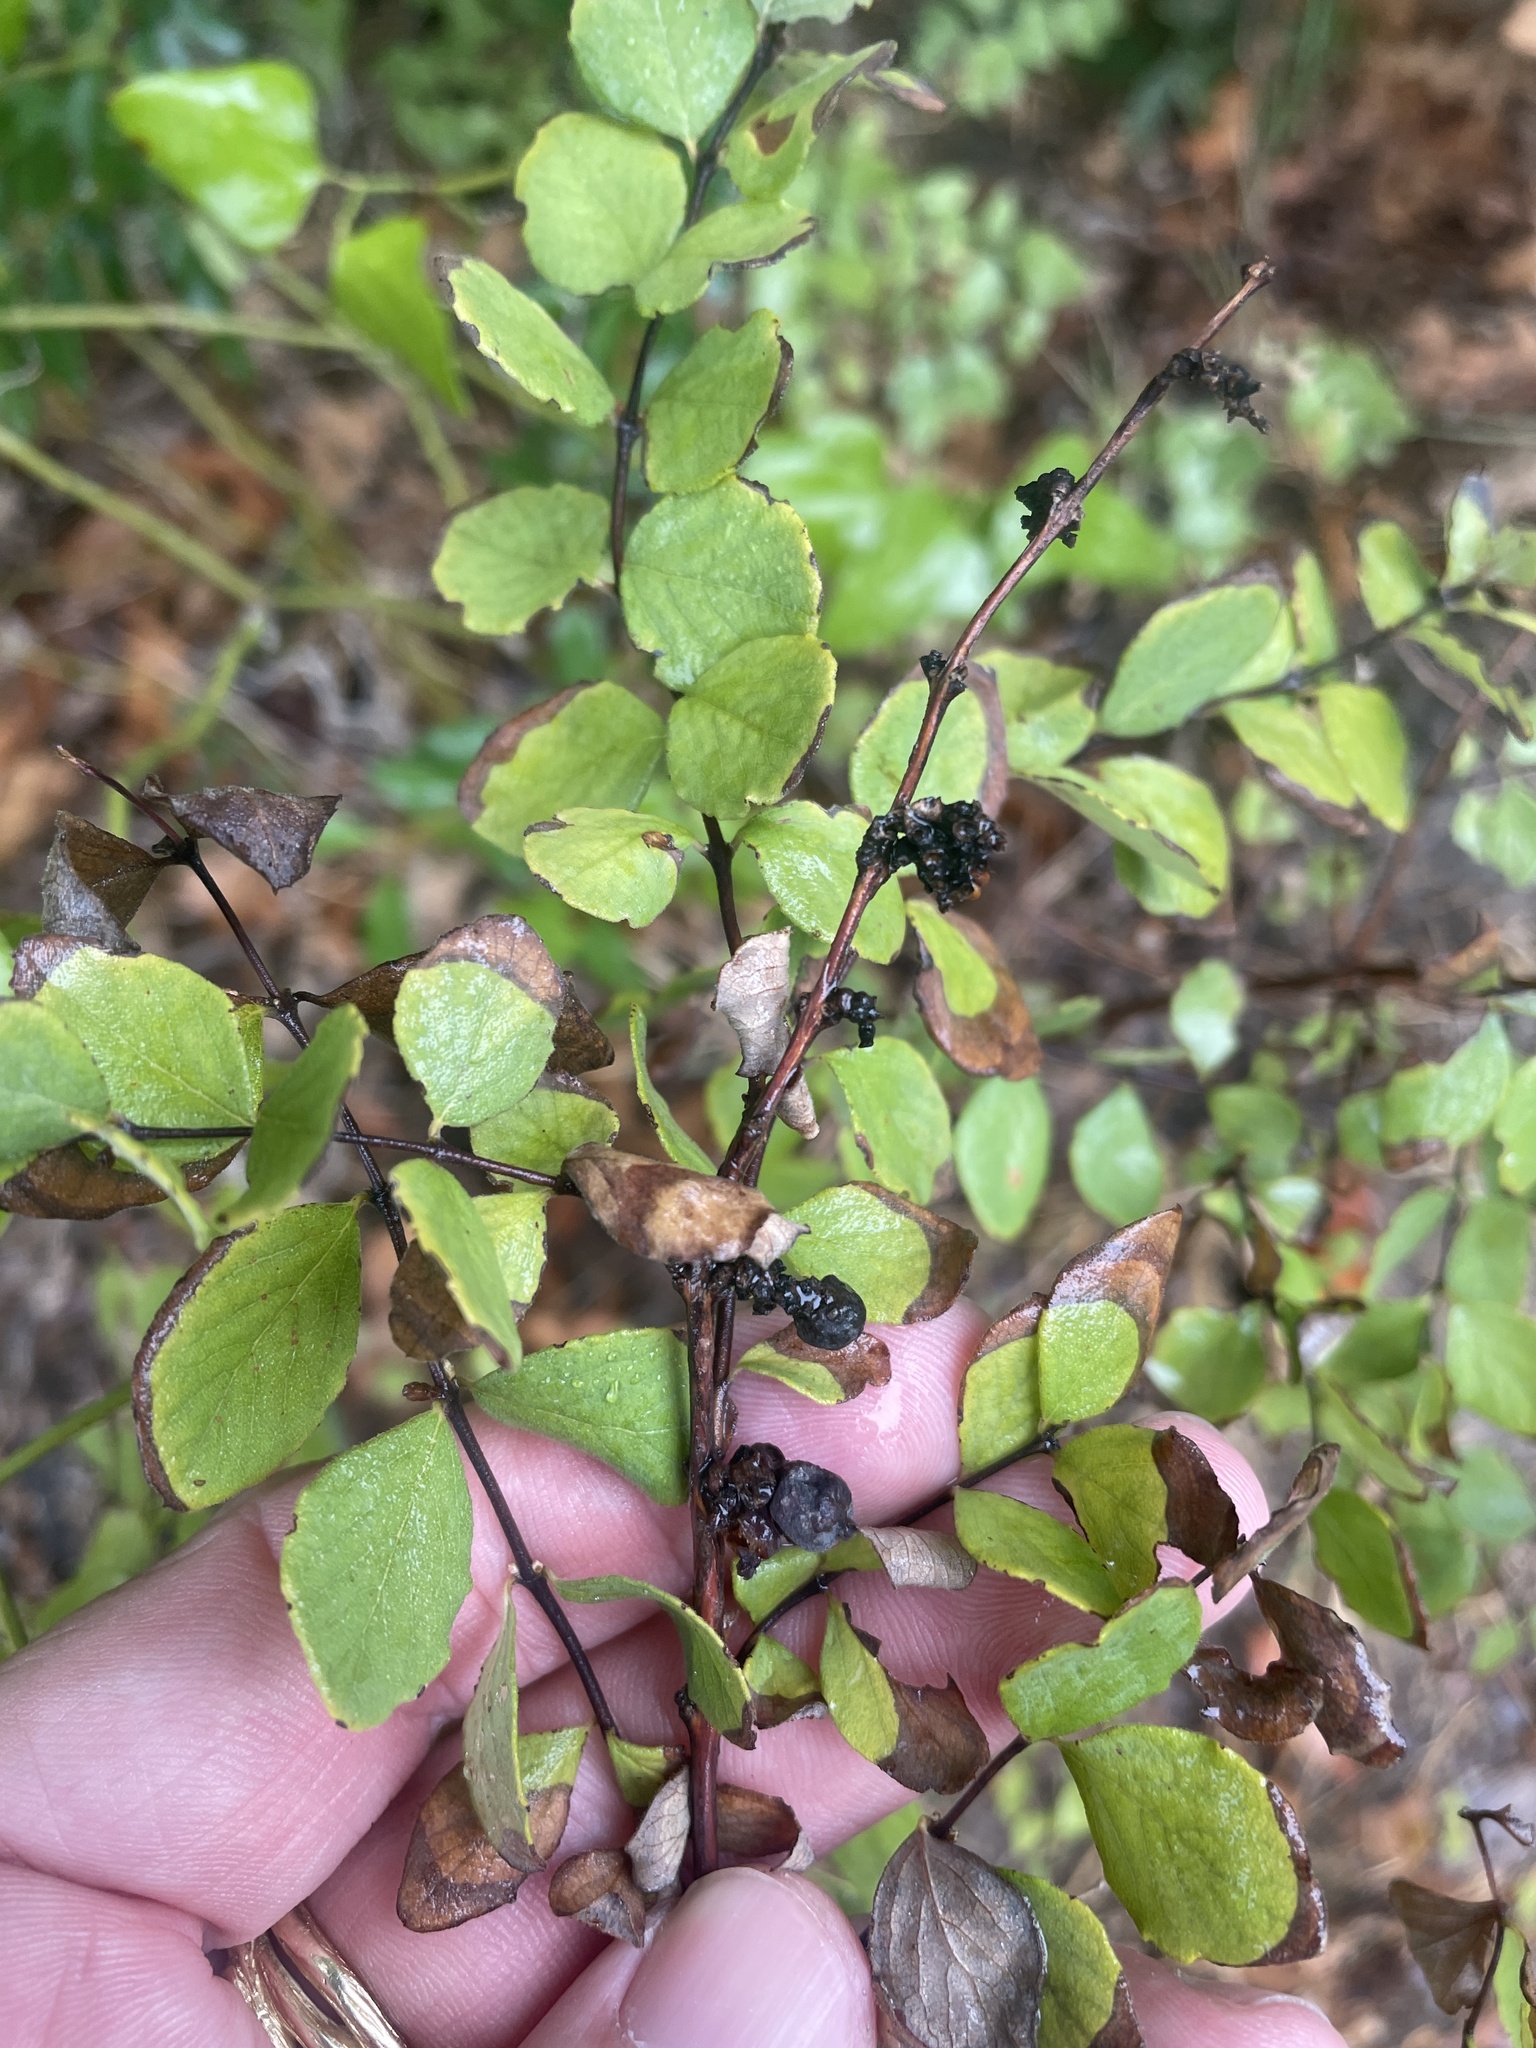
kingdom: Plantae
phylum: Tracheophyta
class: Magnoliopsida
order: Dipsacales
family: Caprifoliaceae
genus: Symphoricarpos
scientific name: Symphoricarpos orbiculatus
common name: Coralberry
